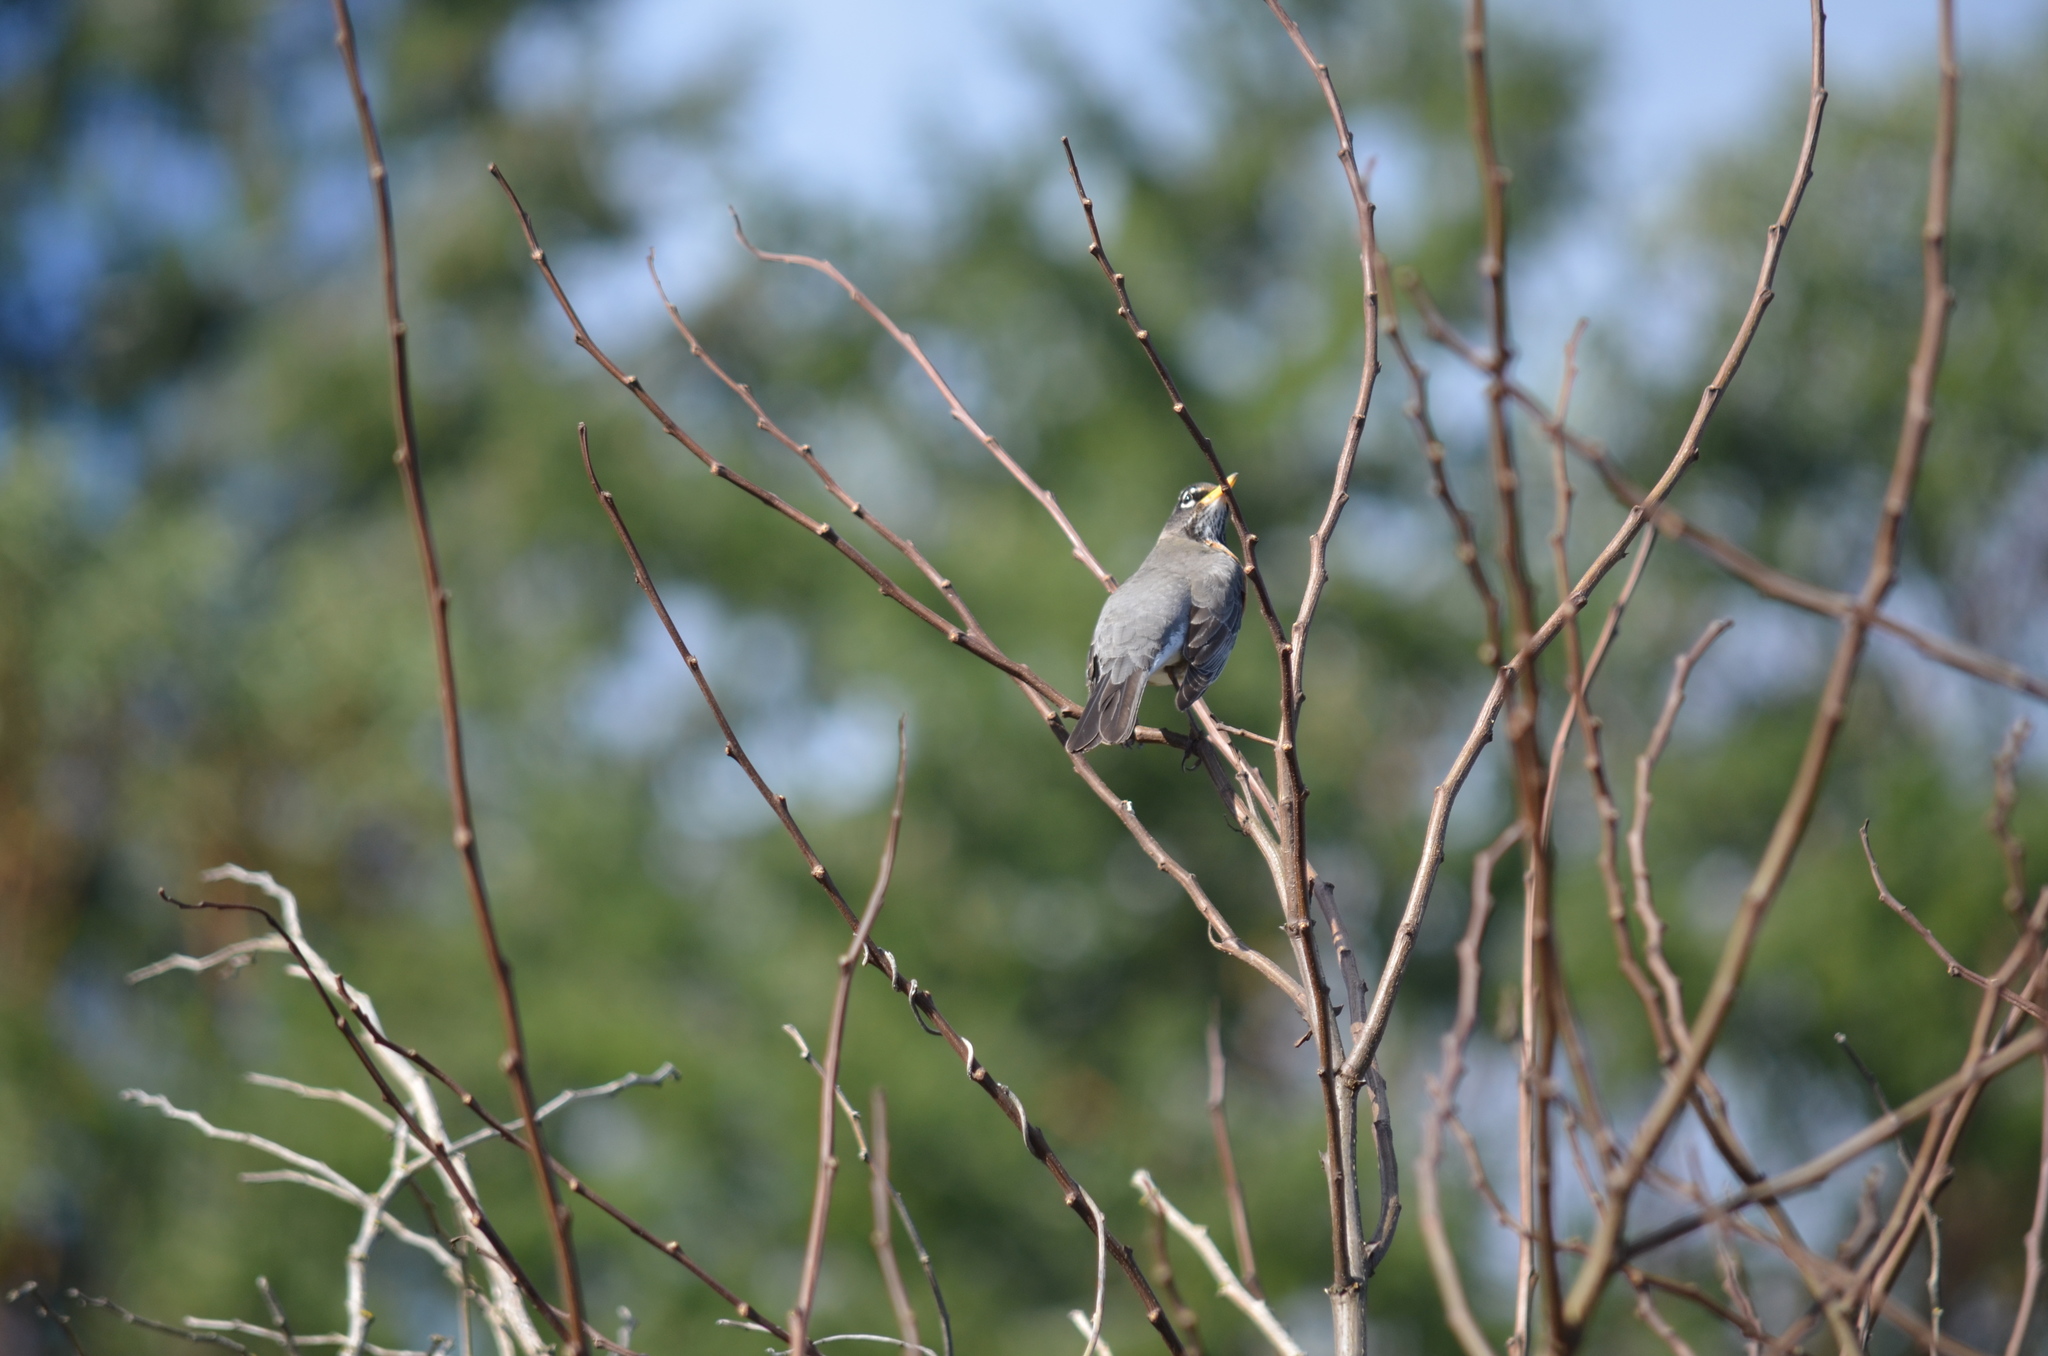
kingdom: Animalia
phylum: Chordata
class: Aves
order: Passeriformes
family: Turdidae
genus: Turdus
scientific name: Turdus migratorius
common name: American robin
